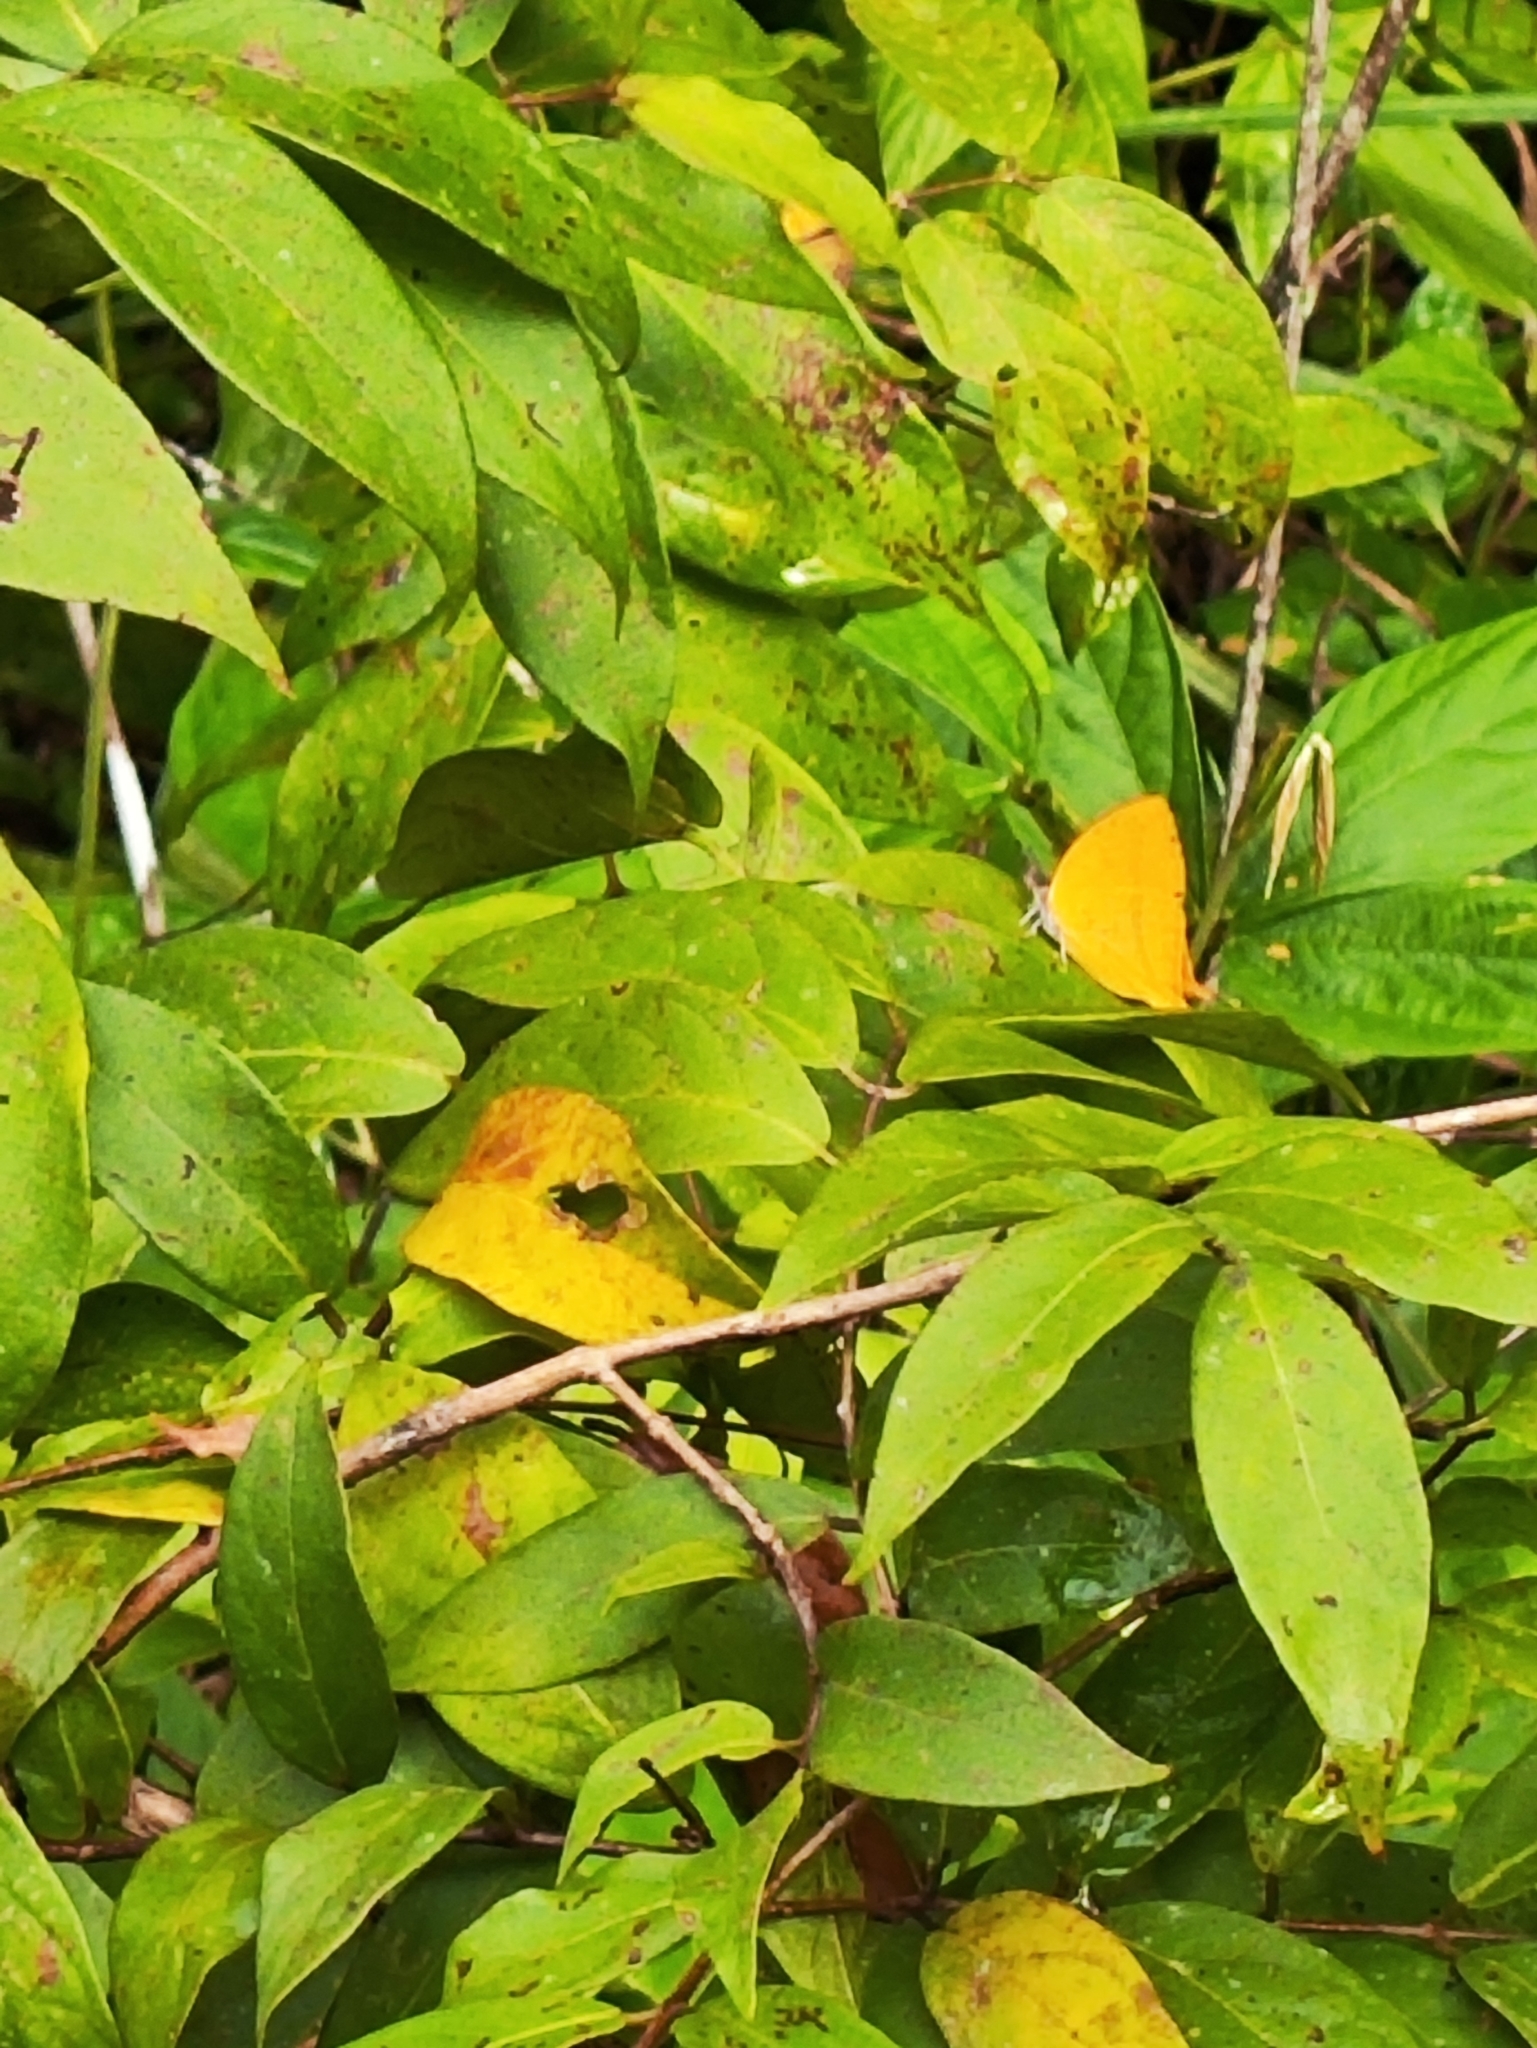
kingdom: Animalia
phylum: Arthropoda
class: Insecta
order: Lepidoptera
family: Lycaenidae
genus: Loxura
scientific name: Loxura atymnus
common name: Common yamfly
